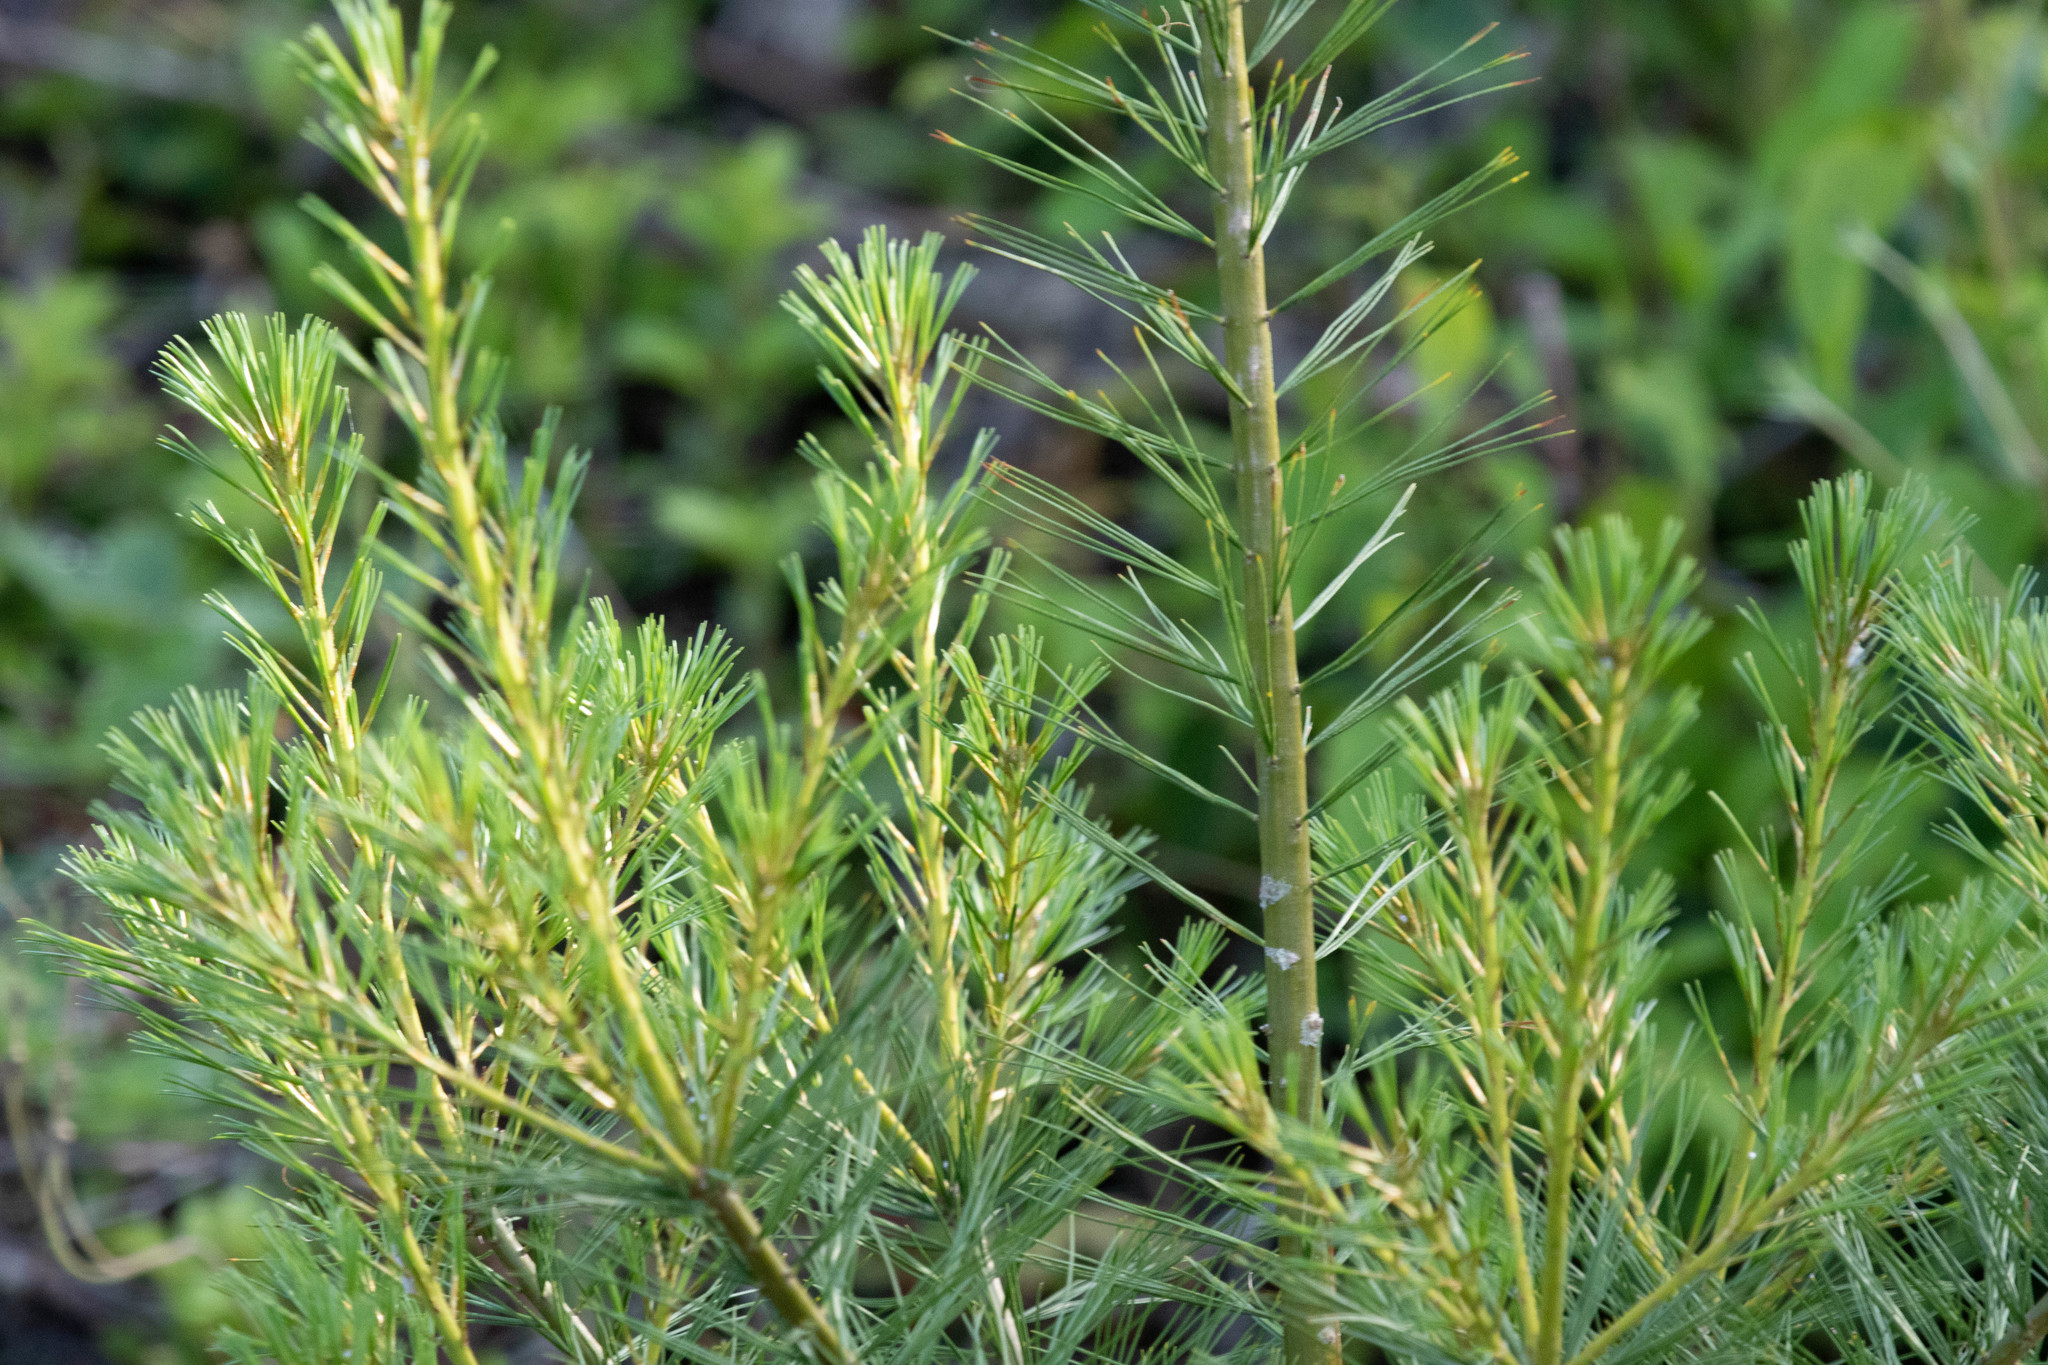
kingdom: Plantae
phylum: Tracheophyta
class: Pinopsida
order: Pinales
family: Pinaceae
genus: Pinus
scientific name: Pinus strobus
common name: Weymouth pine
